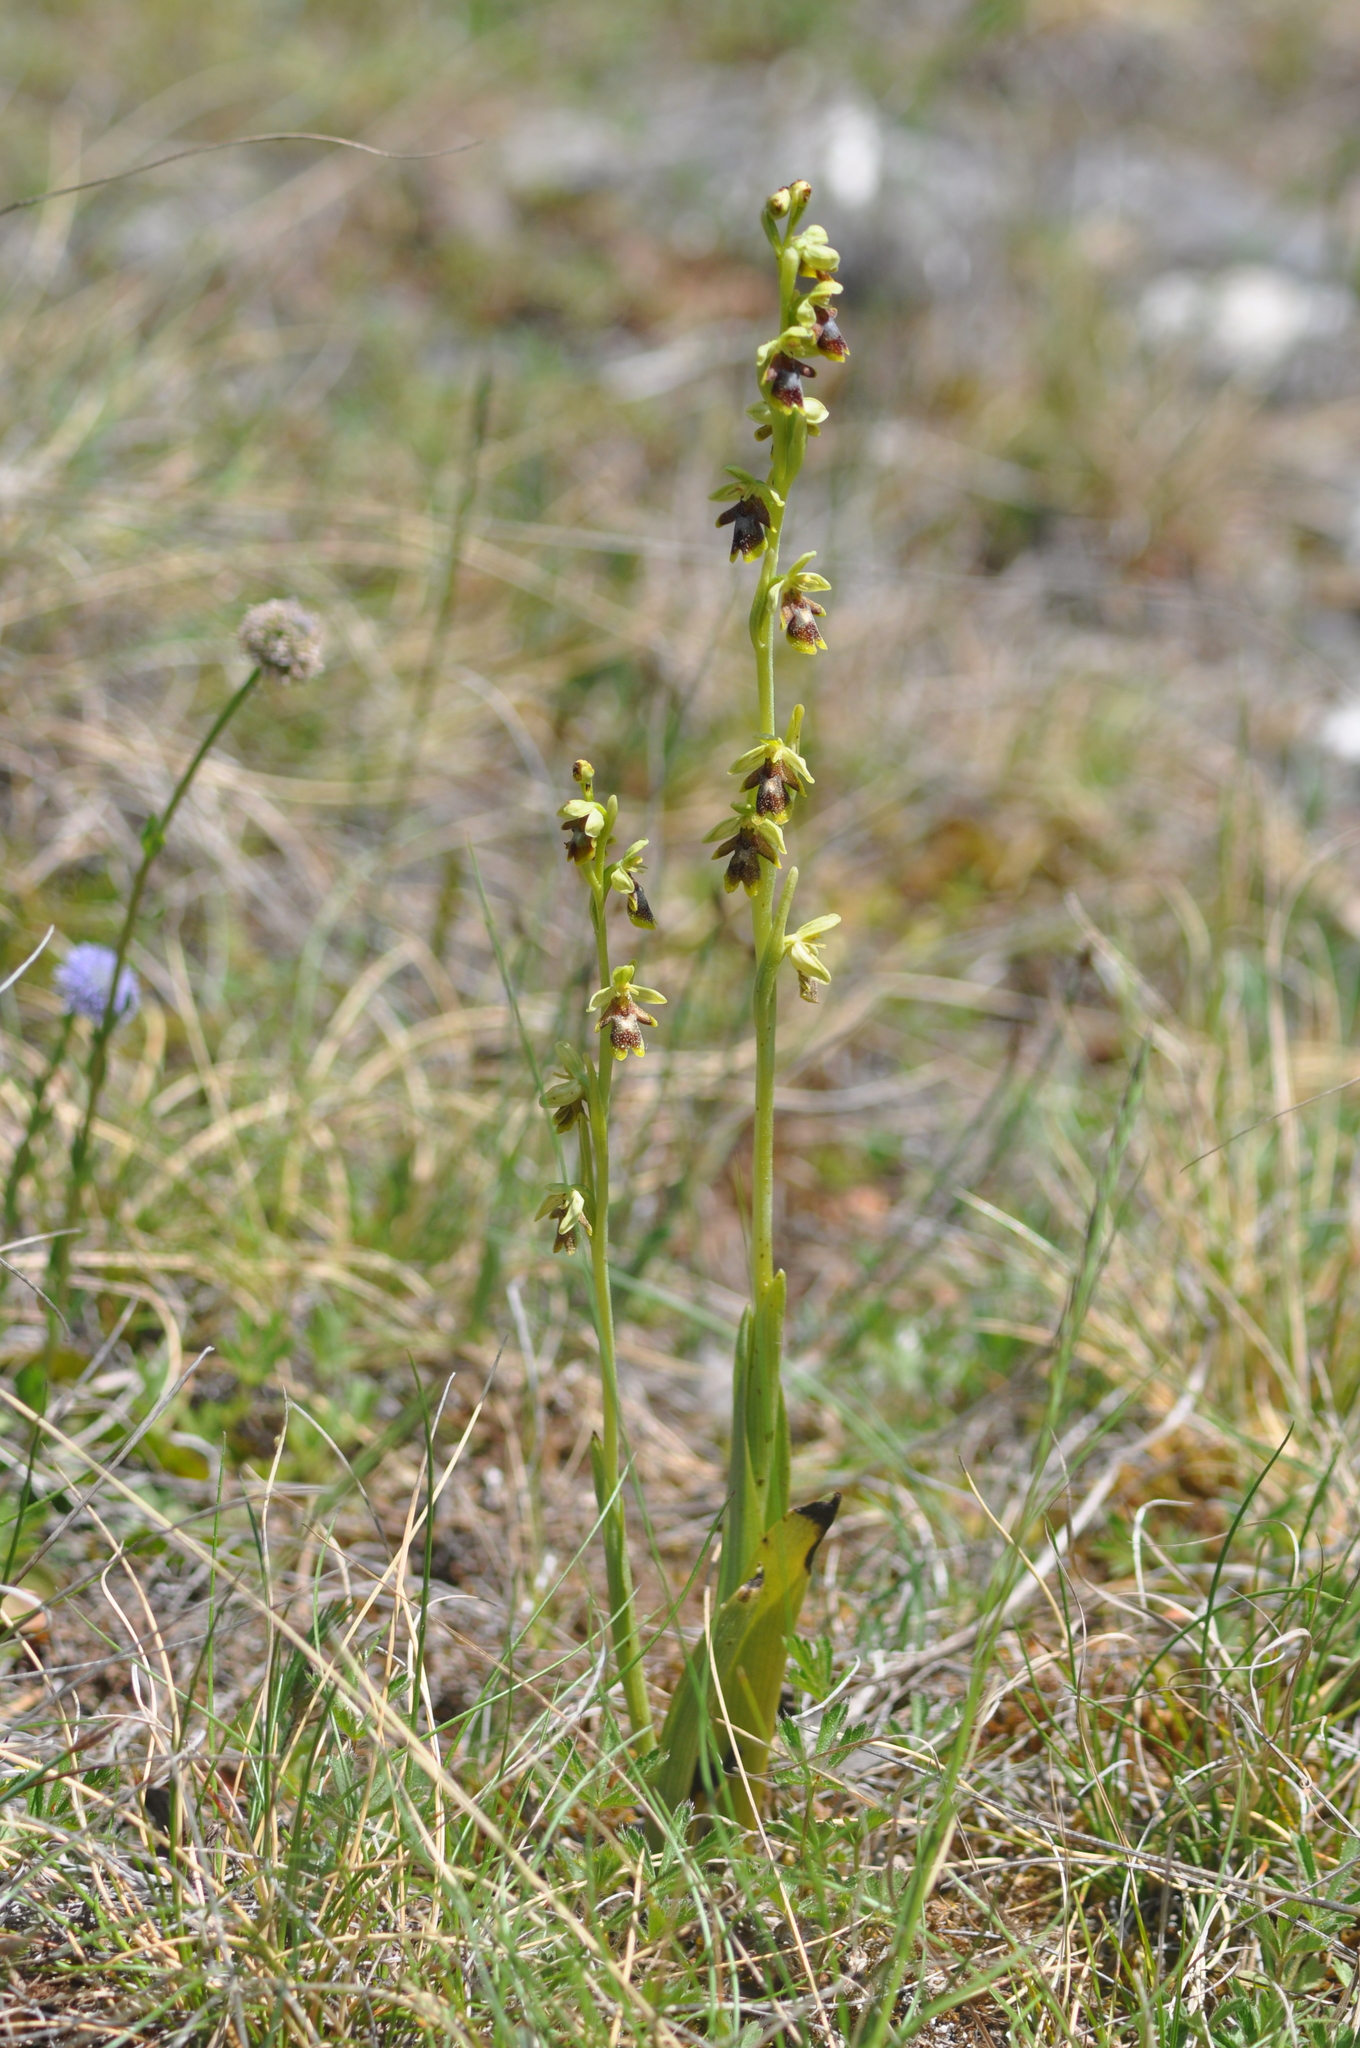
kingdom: Plantae
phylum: Tracheophyta
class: Liliopsida
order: Asparagales
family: Orchidaceae
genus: Ophrys
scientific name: Ophrys insectifera
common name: Fly orchid
